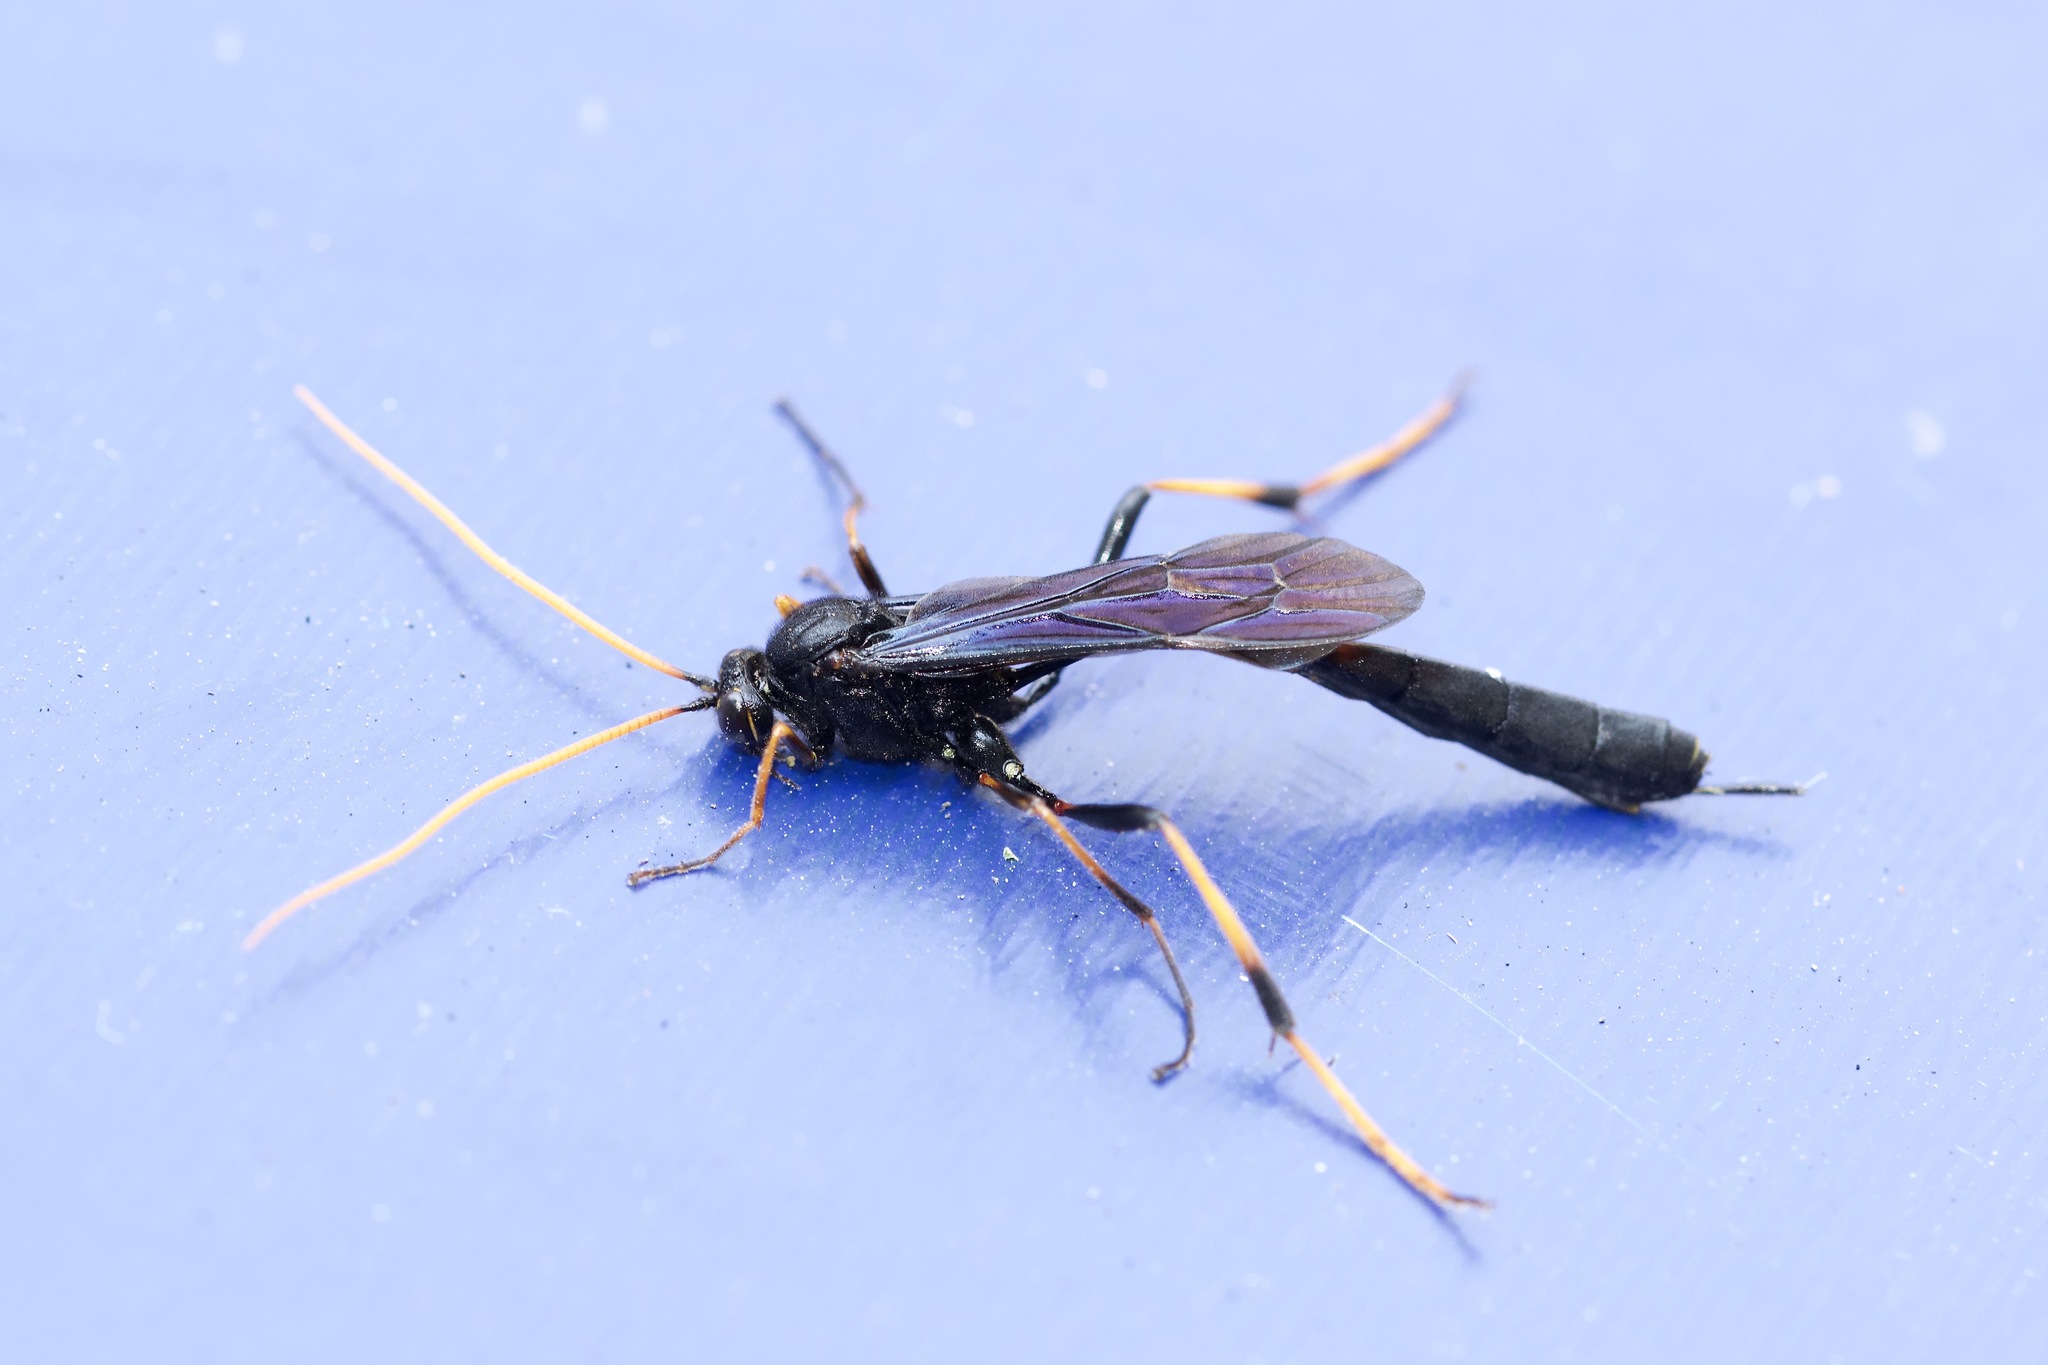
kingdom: Animalia
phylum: Arthropoda
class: Insecta
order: Hymenoptera
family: Ichneumonidae
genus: Therion
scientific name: Therion morio
